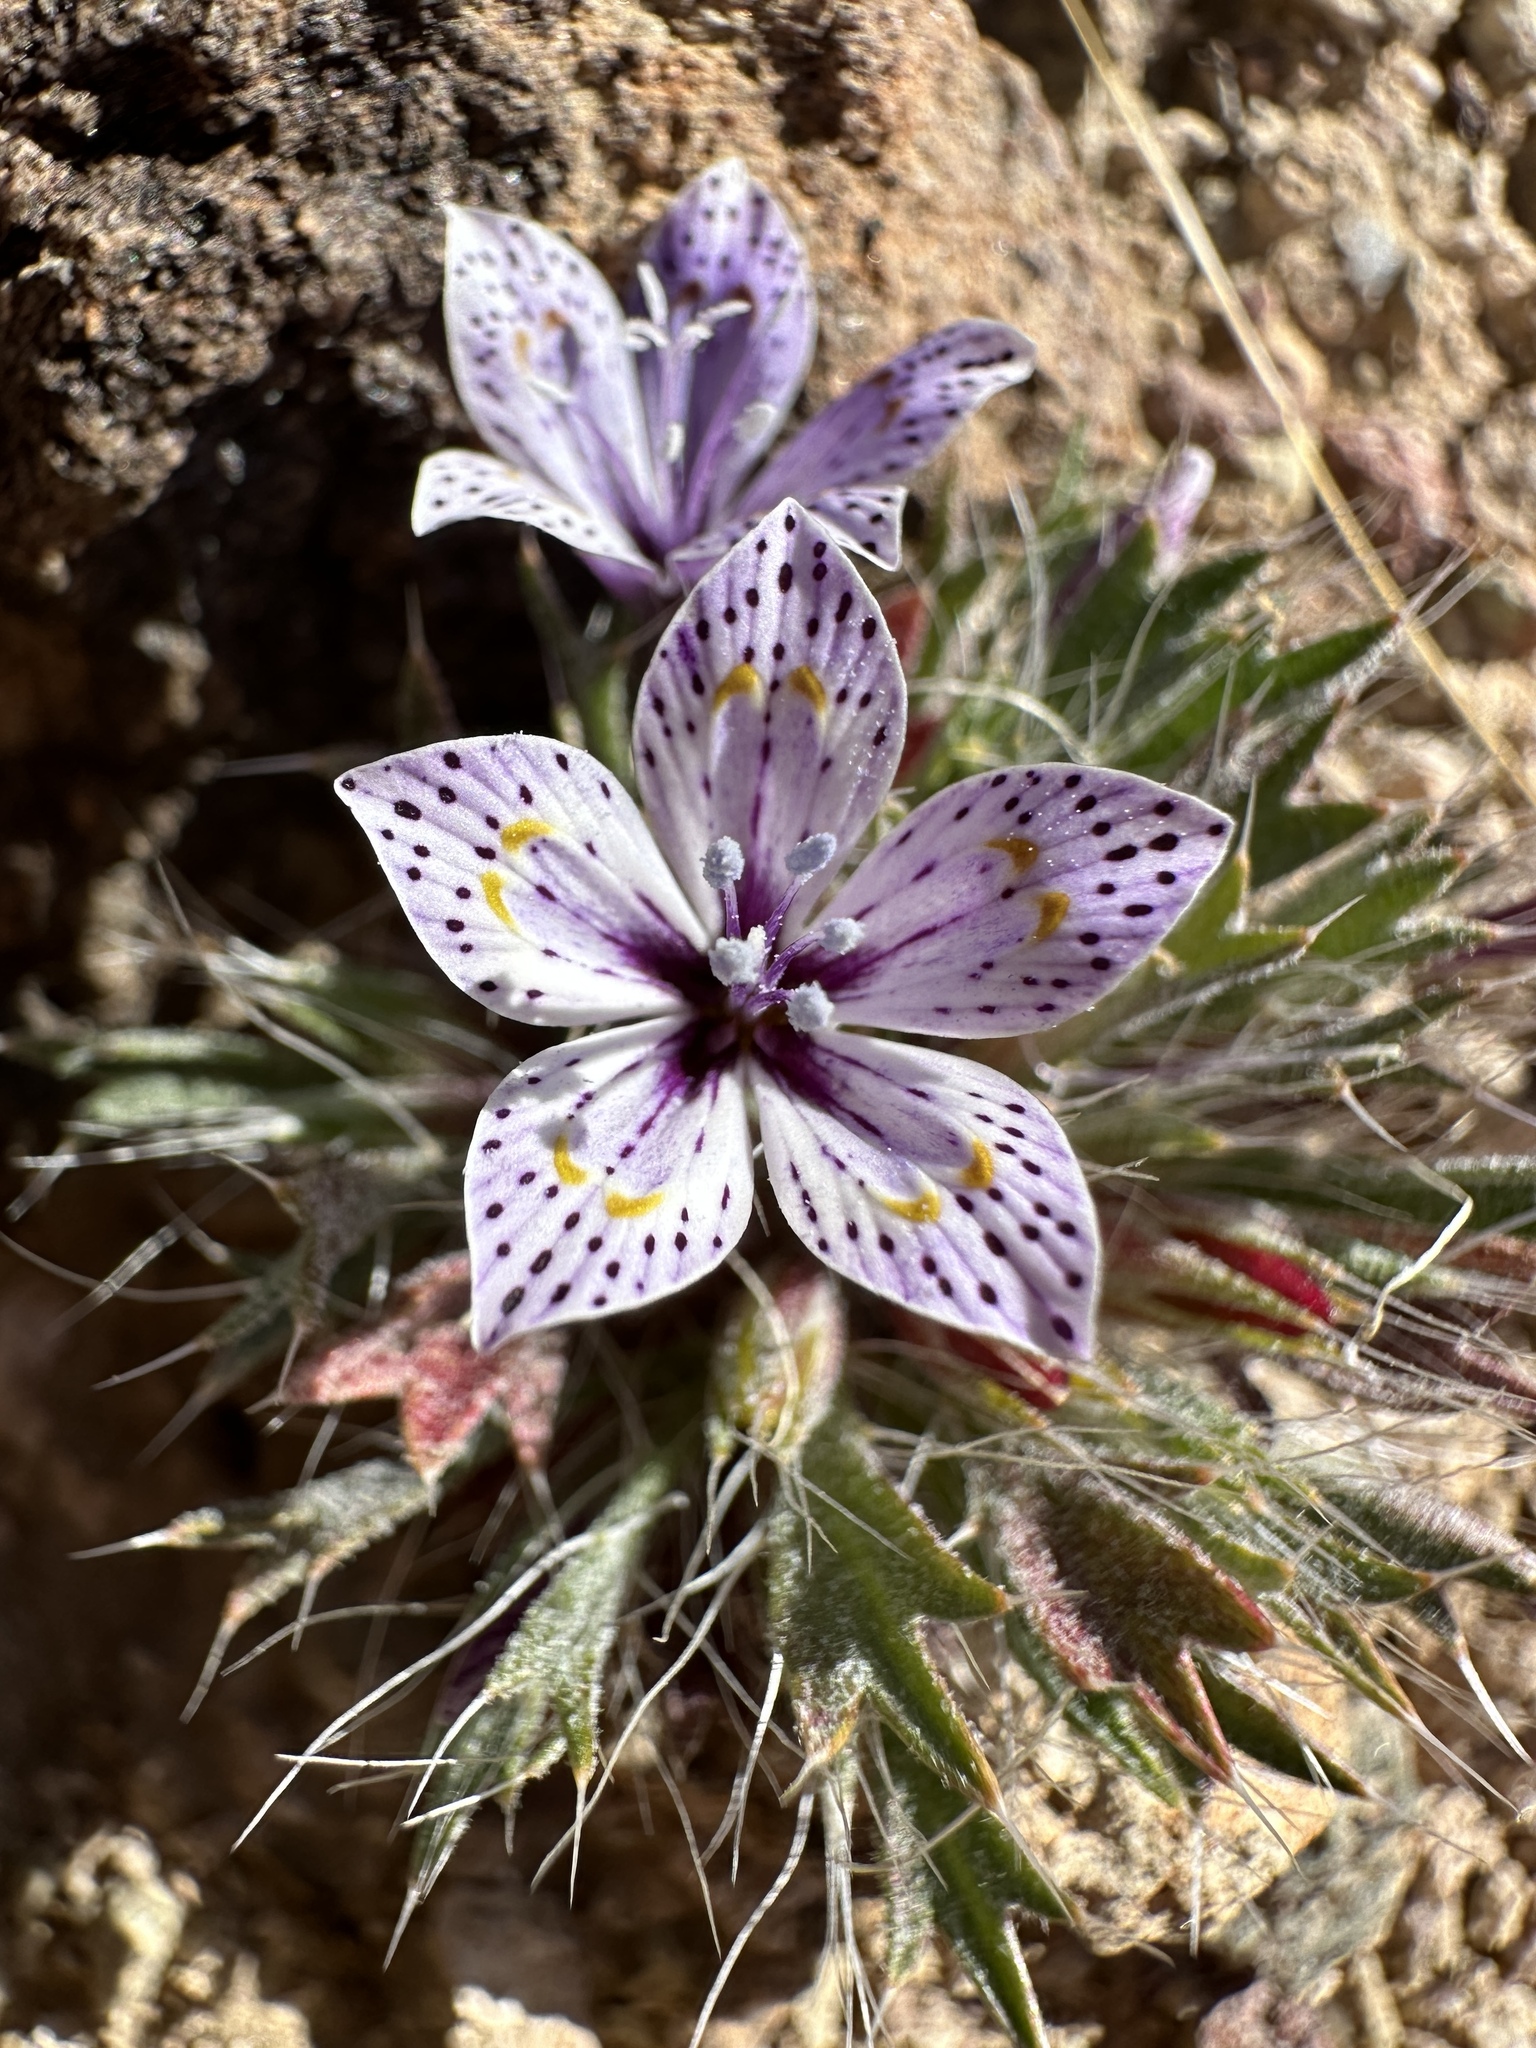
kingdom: Plantae
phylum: Tracheophyta
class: Magnoliopsida
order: Ericales
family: Polemoniaceae
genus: Langloisia
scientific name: Langloisia setosissima
